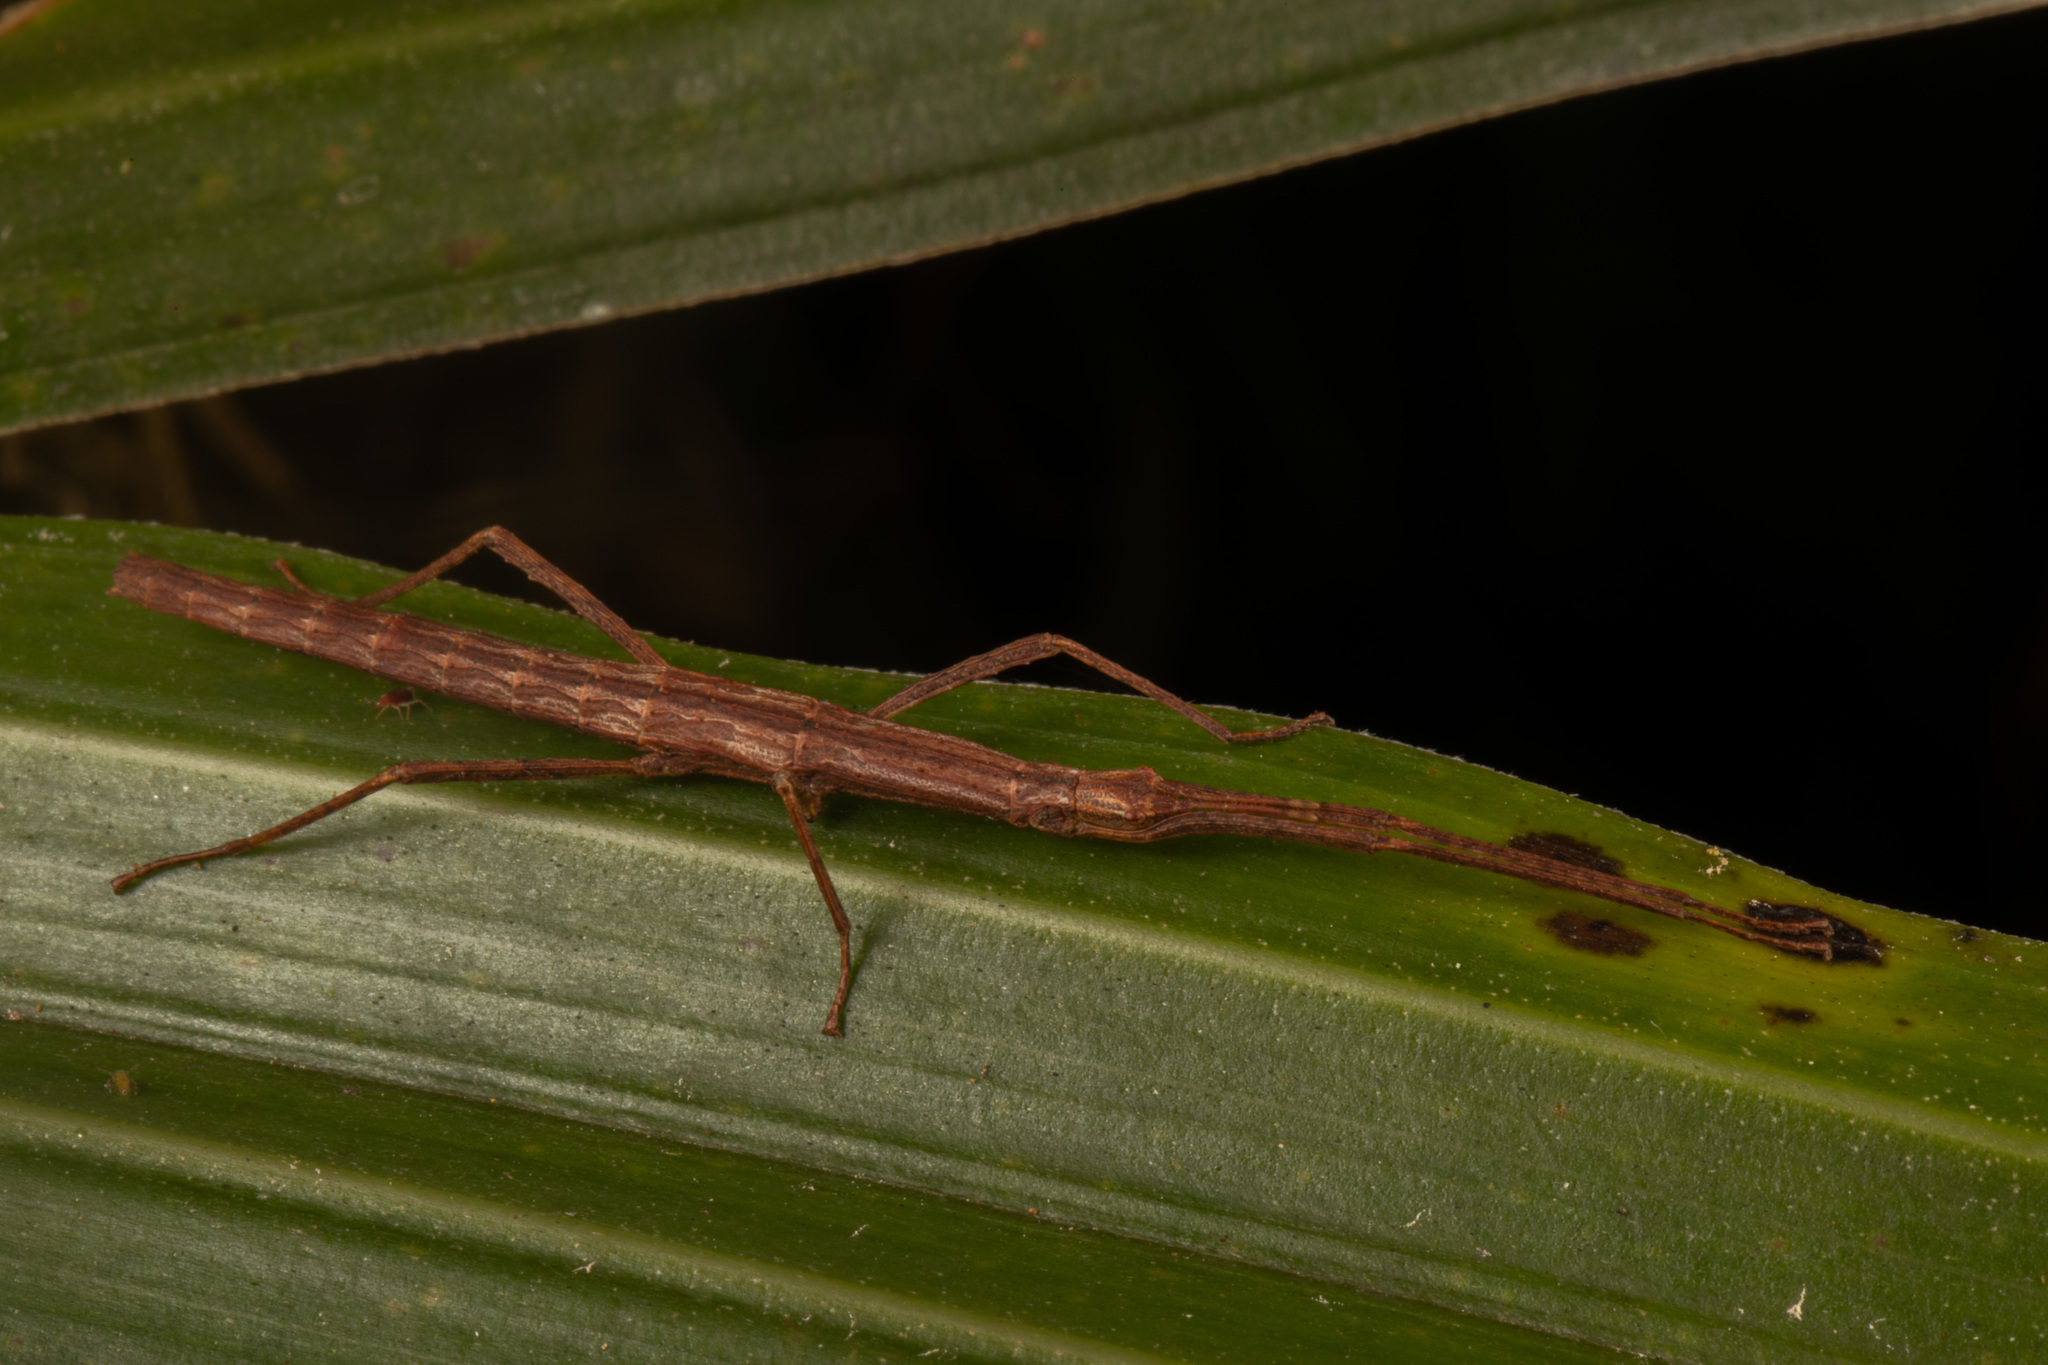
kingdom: Animalia
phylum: Arthropoda
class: Insecta
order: Phasmida
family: Phasmatidae
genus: Spinotectarchus
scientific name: Spinotectarchus acornutus
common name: The spiny ridge-backed stick insect
